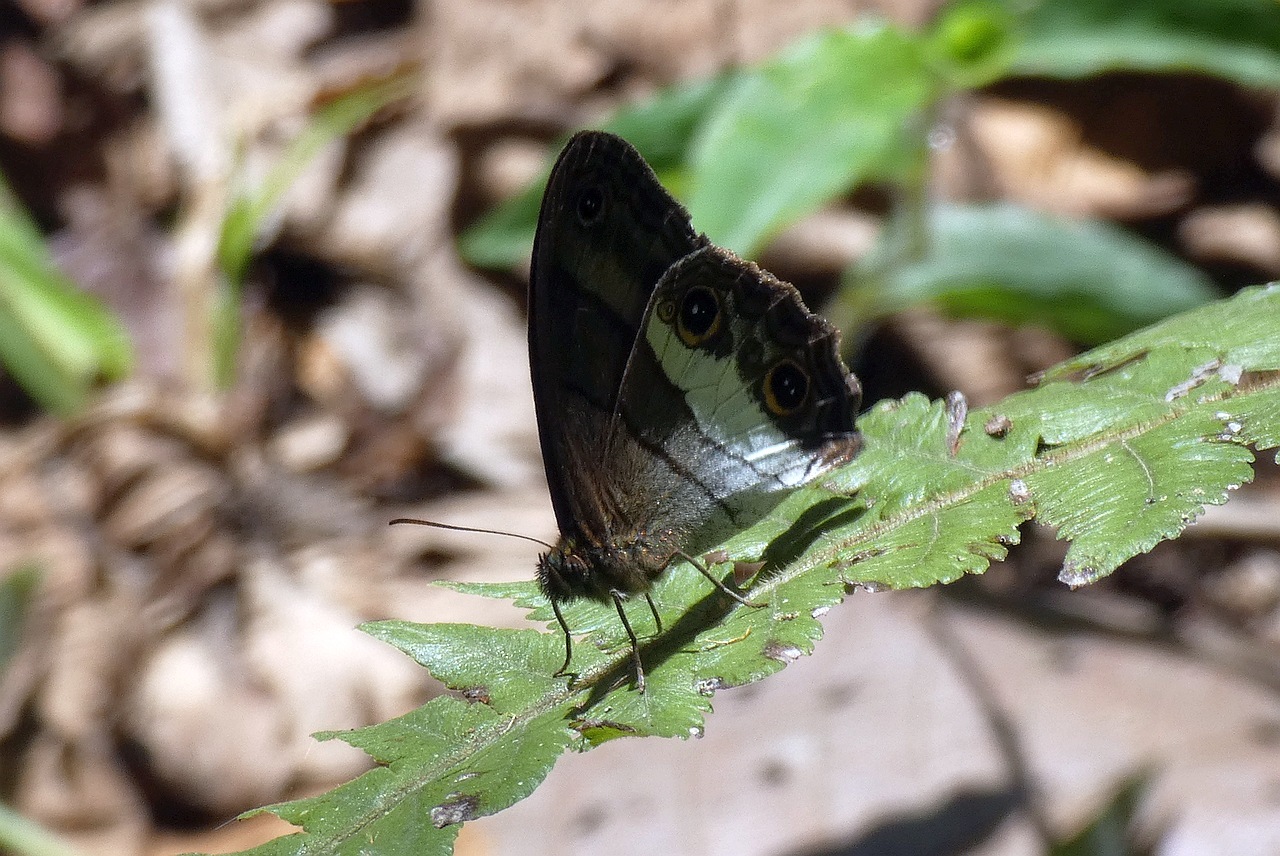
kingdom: Animalia
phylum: Arthropoda
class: Insecta
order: Lepidoptera
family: Nymphalidae
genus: Colombeia
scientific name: Colombeia
